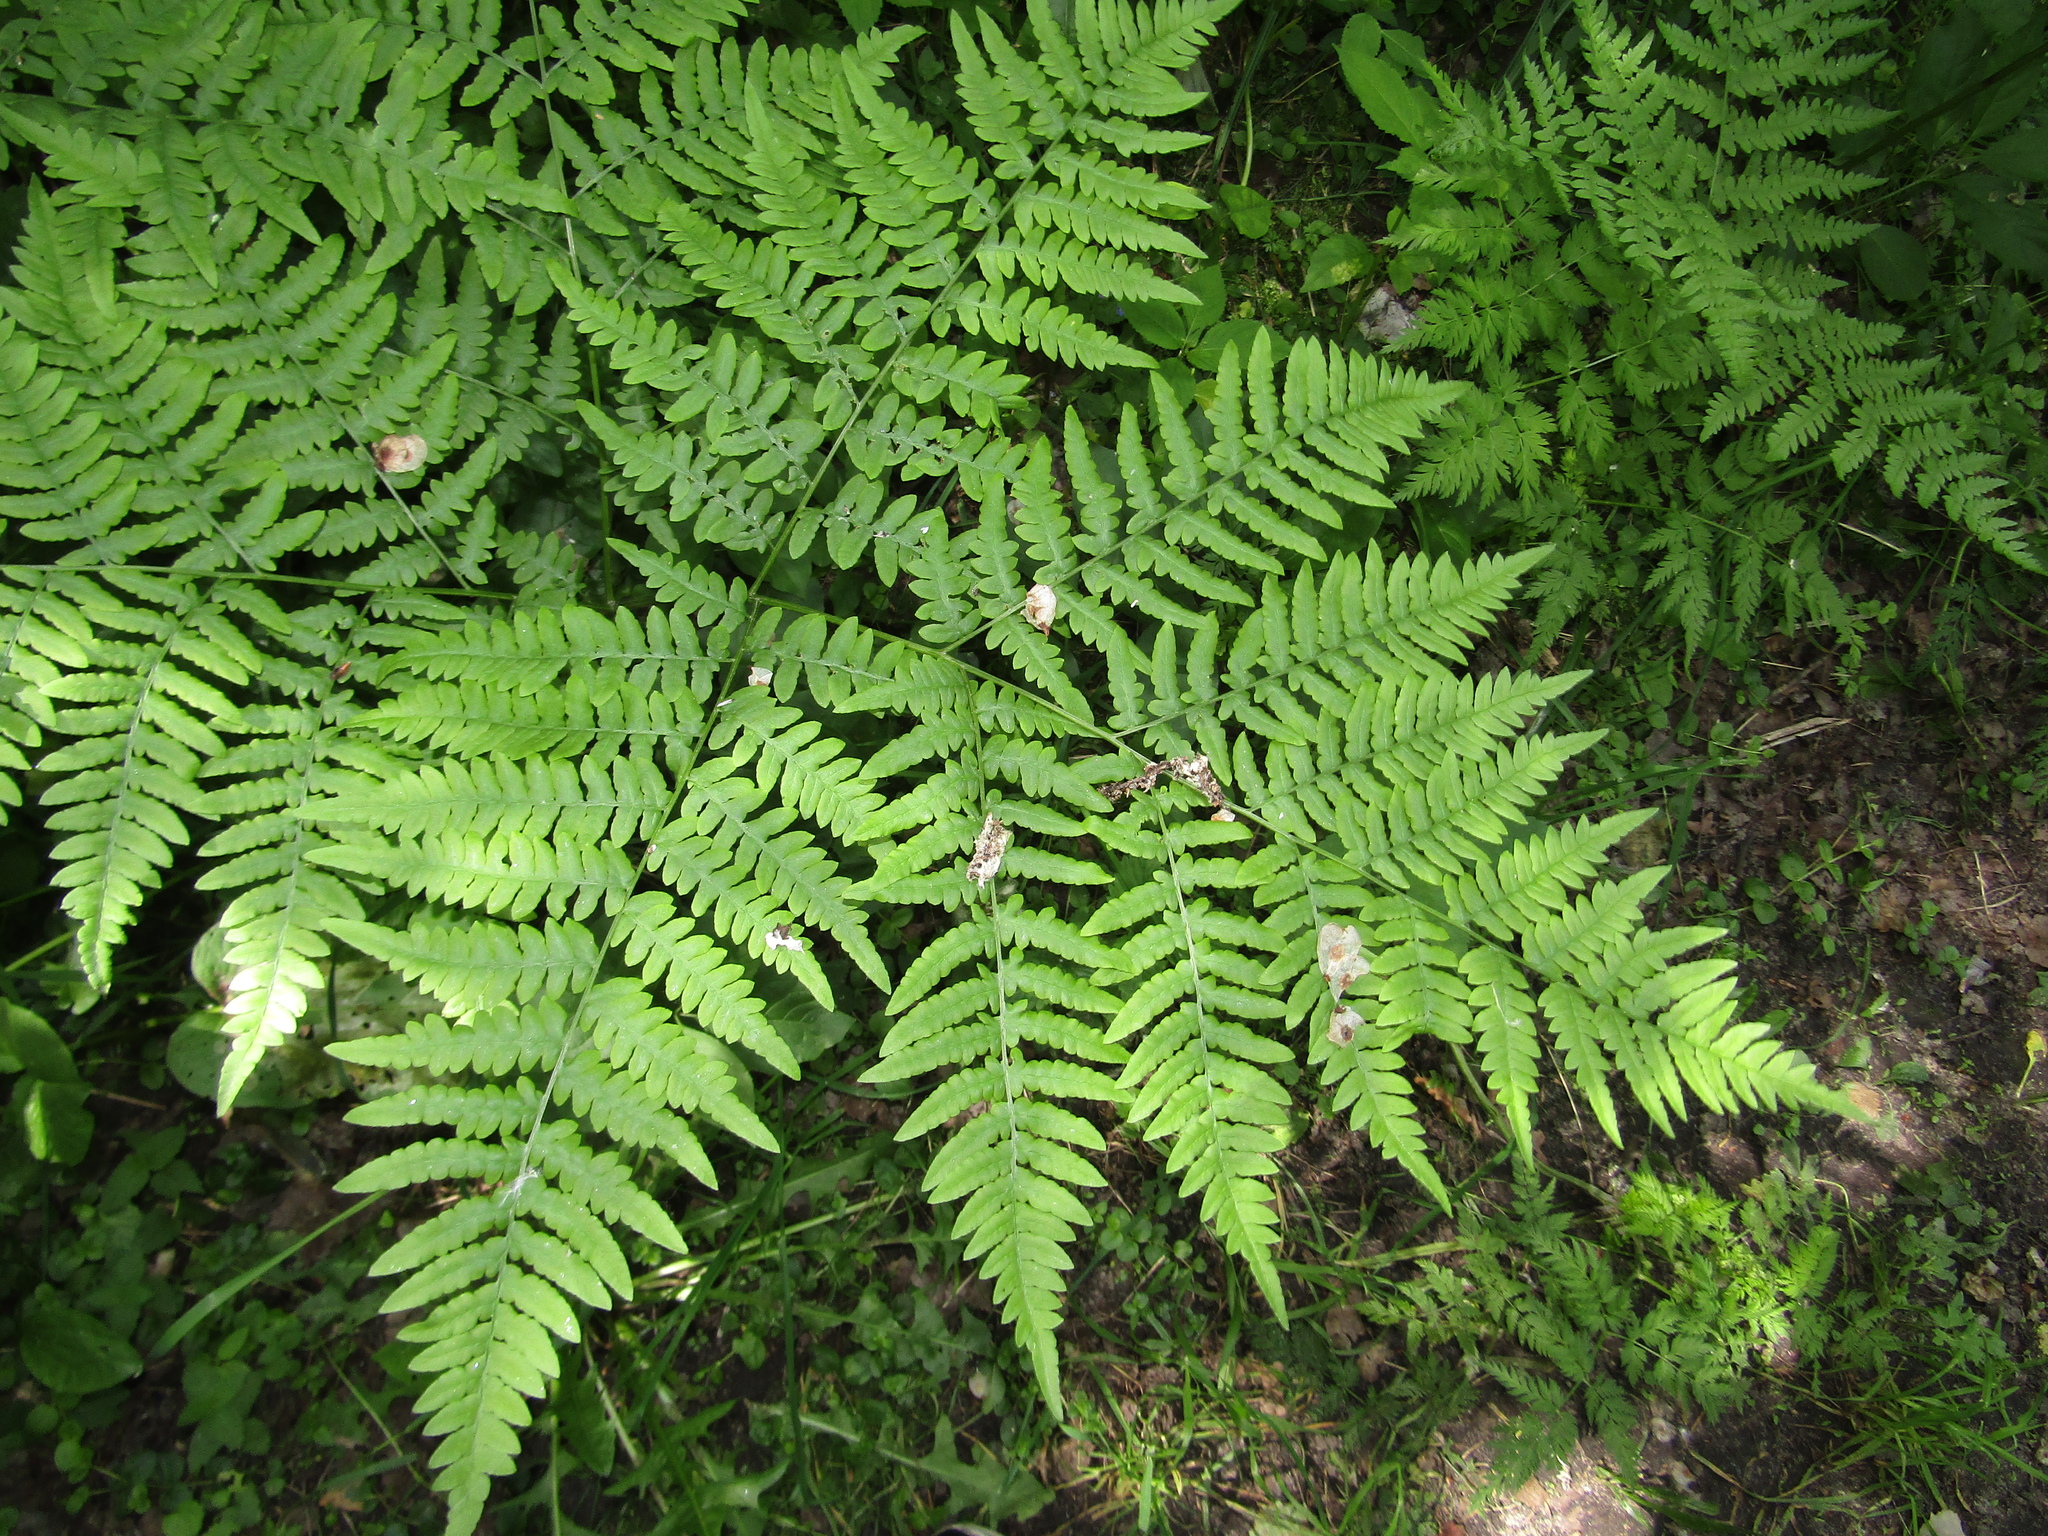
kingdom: Plantae
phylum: Tracheophyta
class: Polypodiopsida
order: Polypodiales
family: Dennstaedtiaceae
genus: Pteridium
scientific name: Pteridium aquilinum
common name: Bracken
